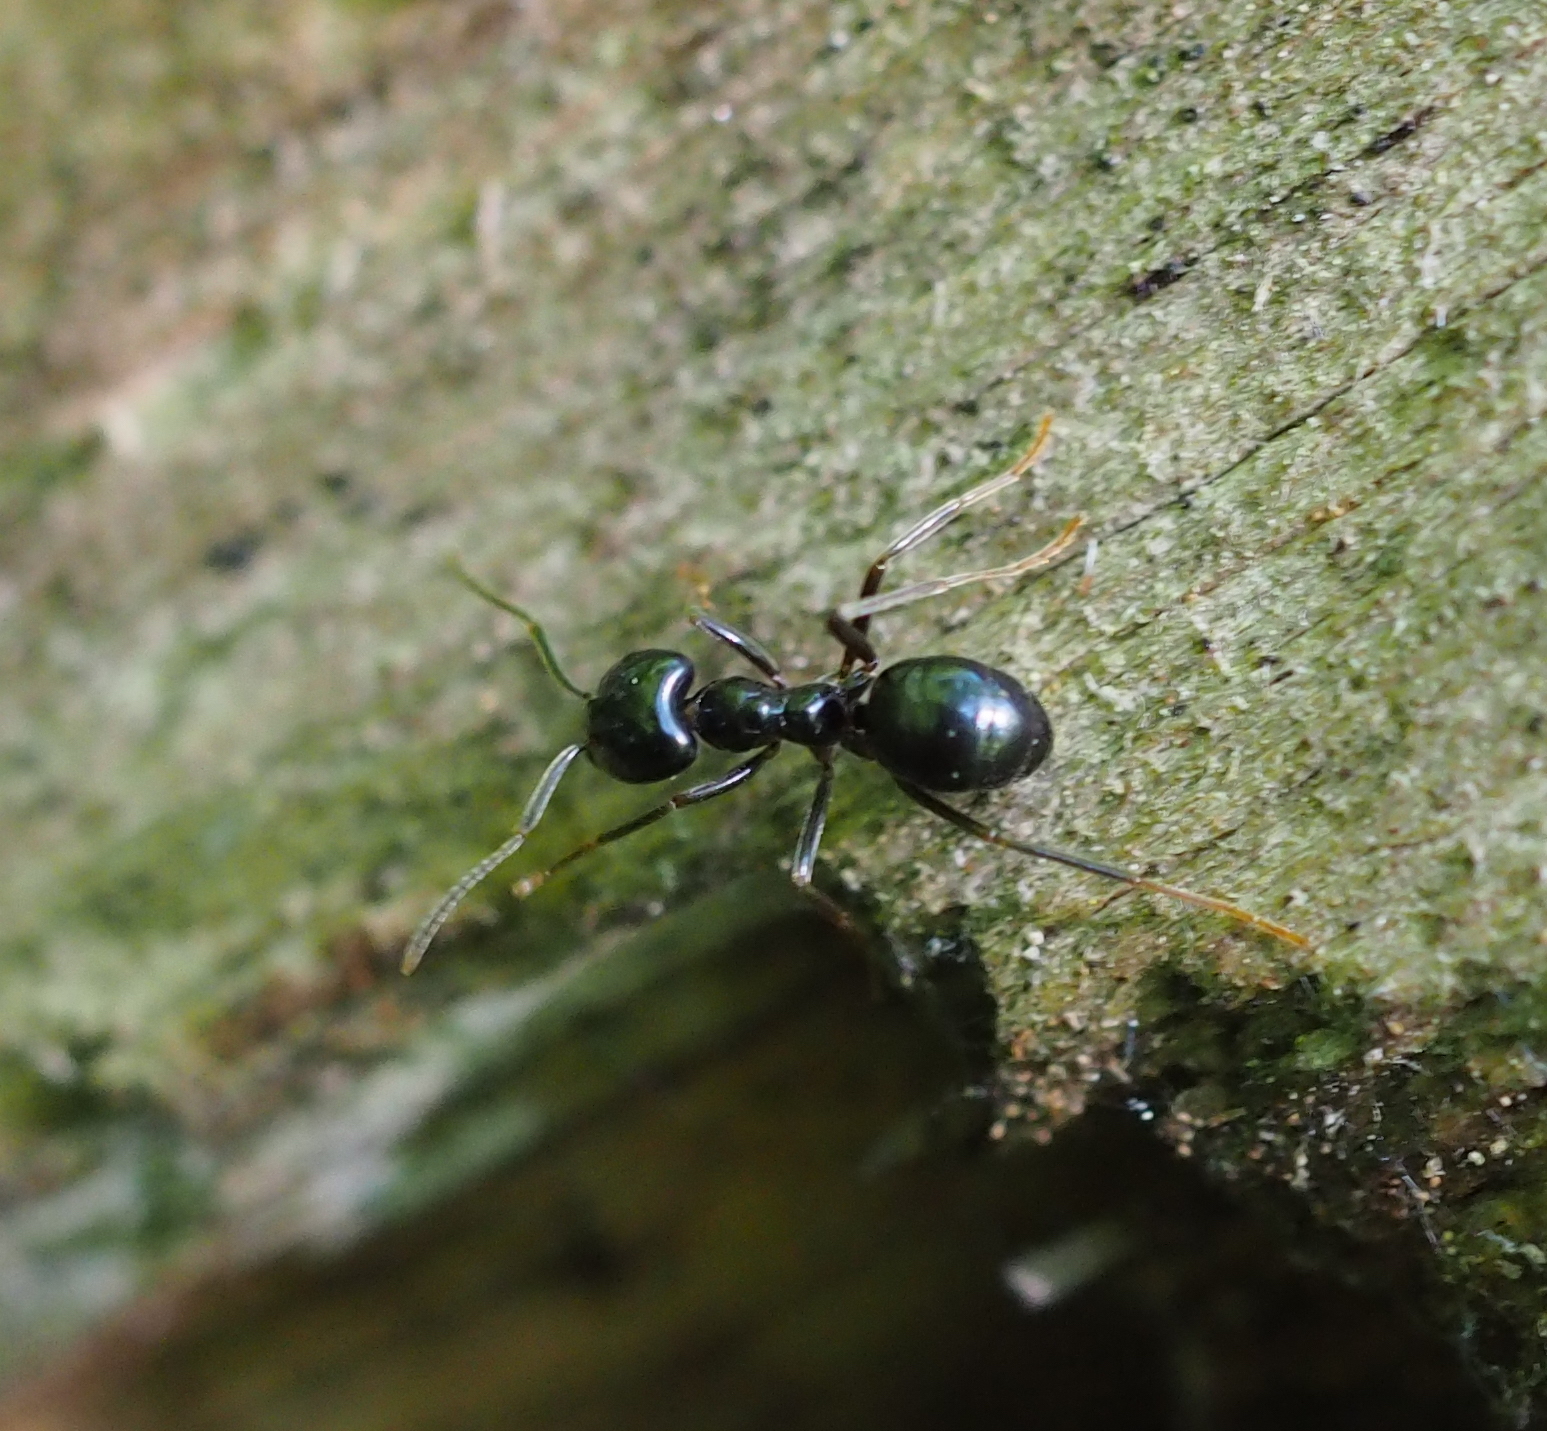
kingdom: Animalia
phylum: Arthropoda
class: Insecta
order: Hymenoptera
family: Formicidae
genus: Lasius
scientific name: Lasius fuliginosus
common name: Jet ant
